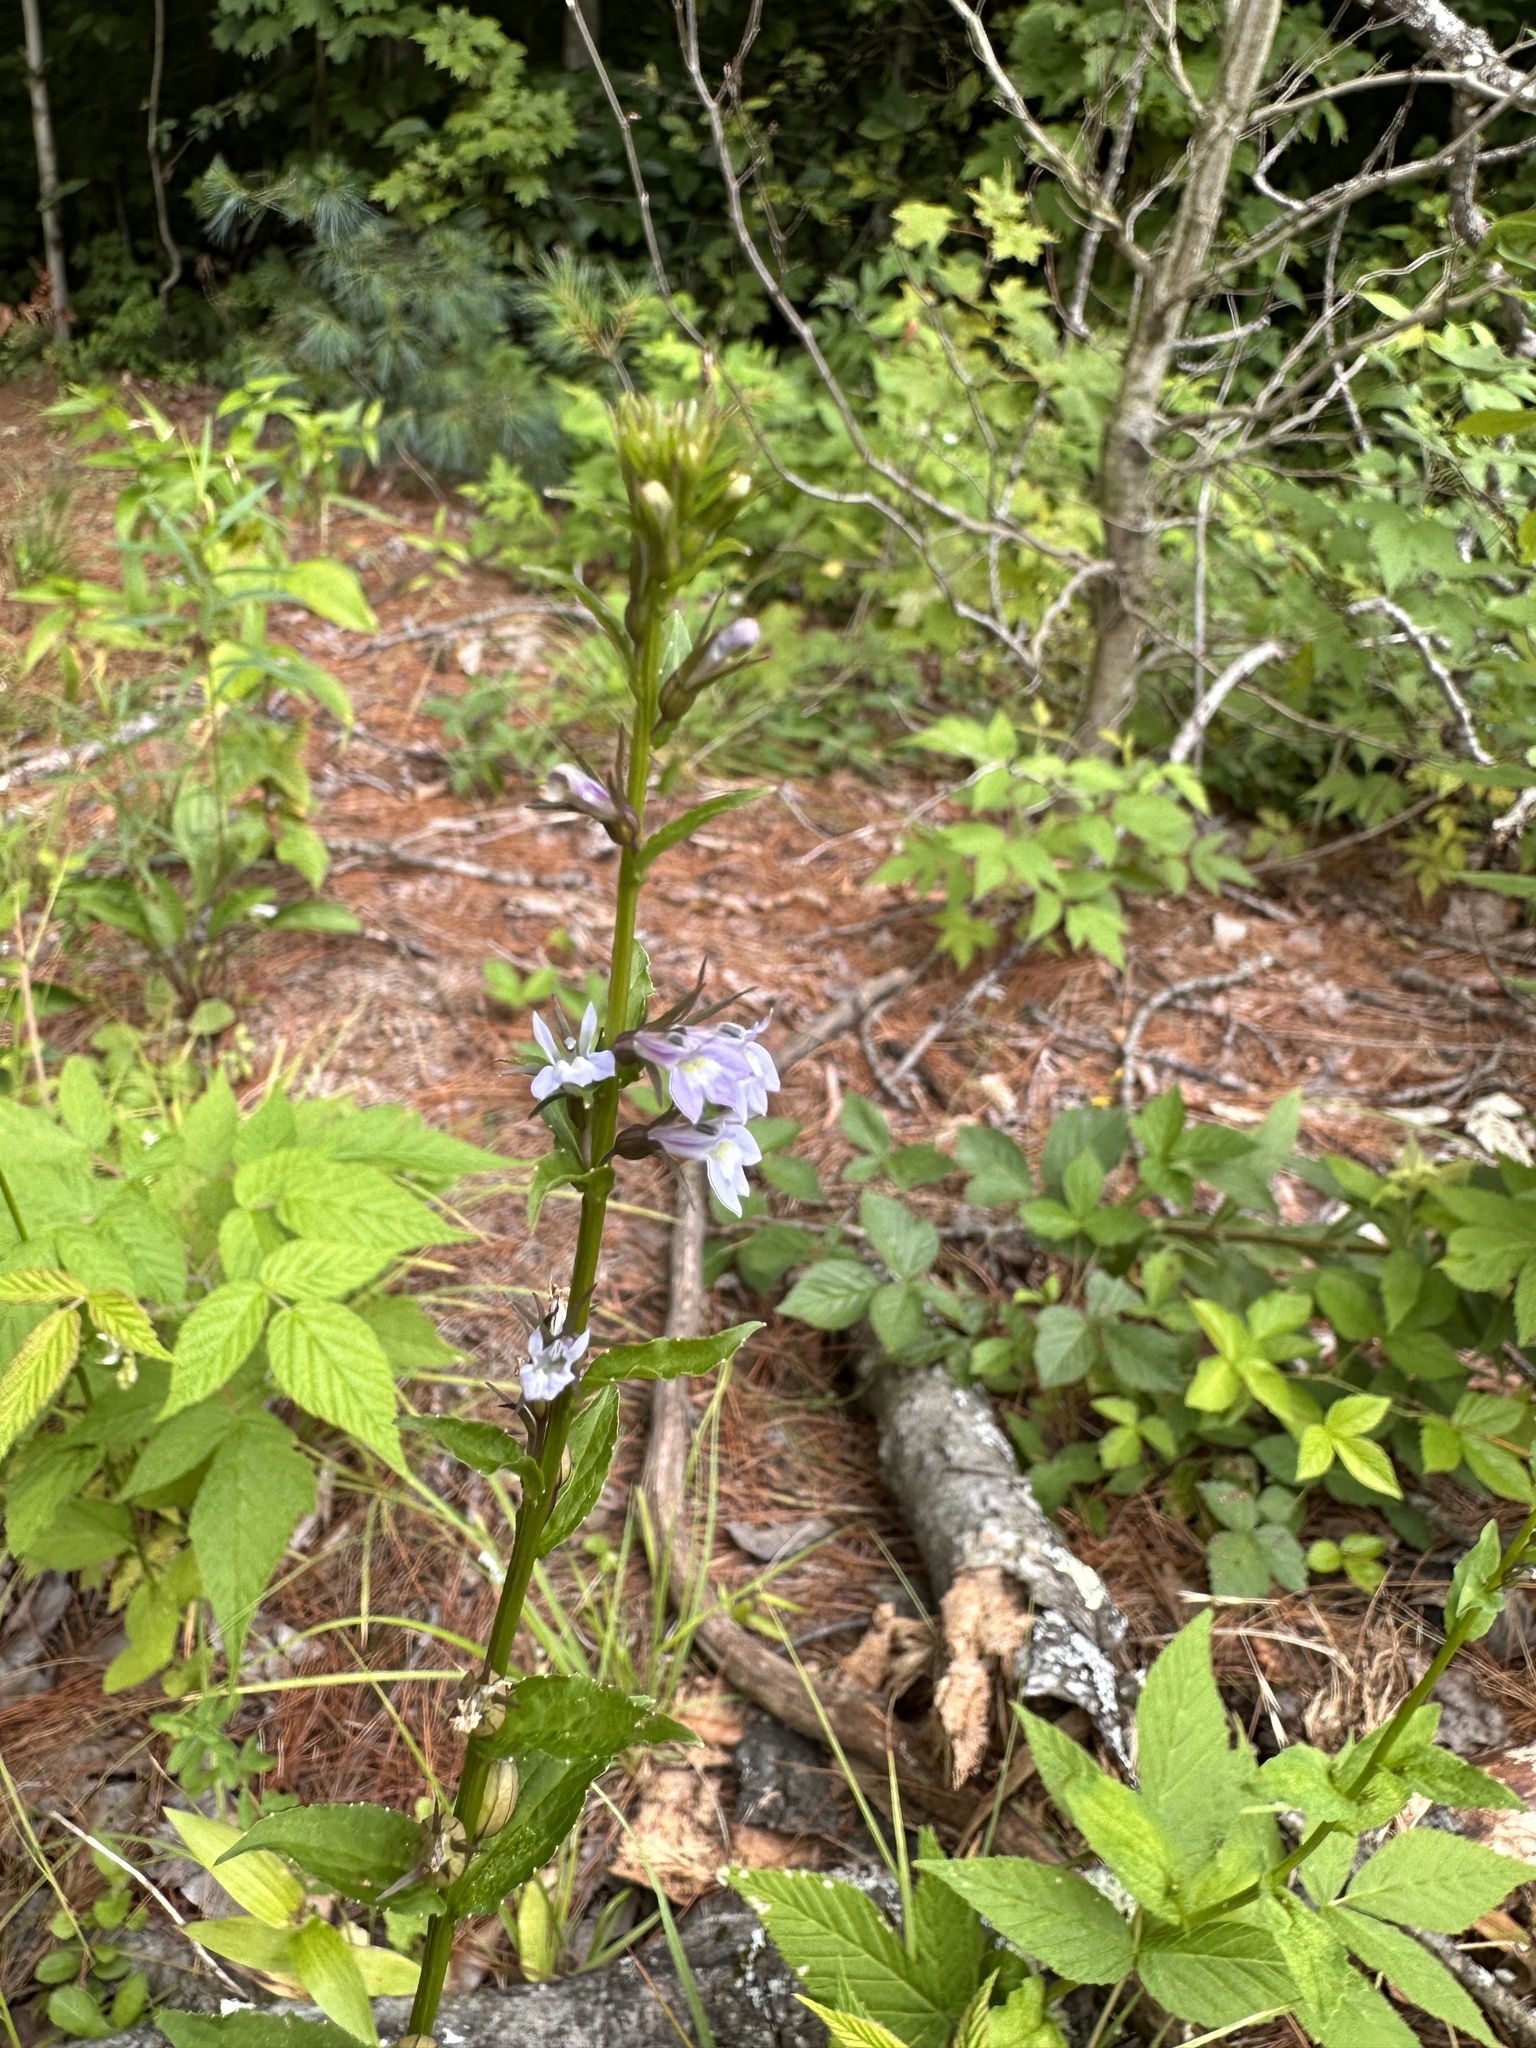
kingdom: Plantae
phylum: Tracheophyta
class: Magnoliopsida
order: Asterales
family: Campanulaceae
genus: Lobelia
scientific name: Lobelia inflata
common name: Indian tobacco
